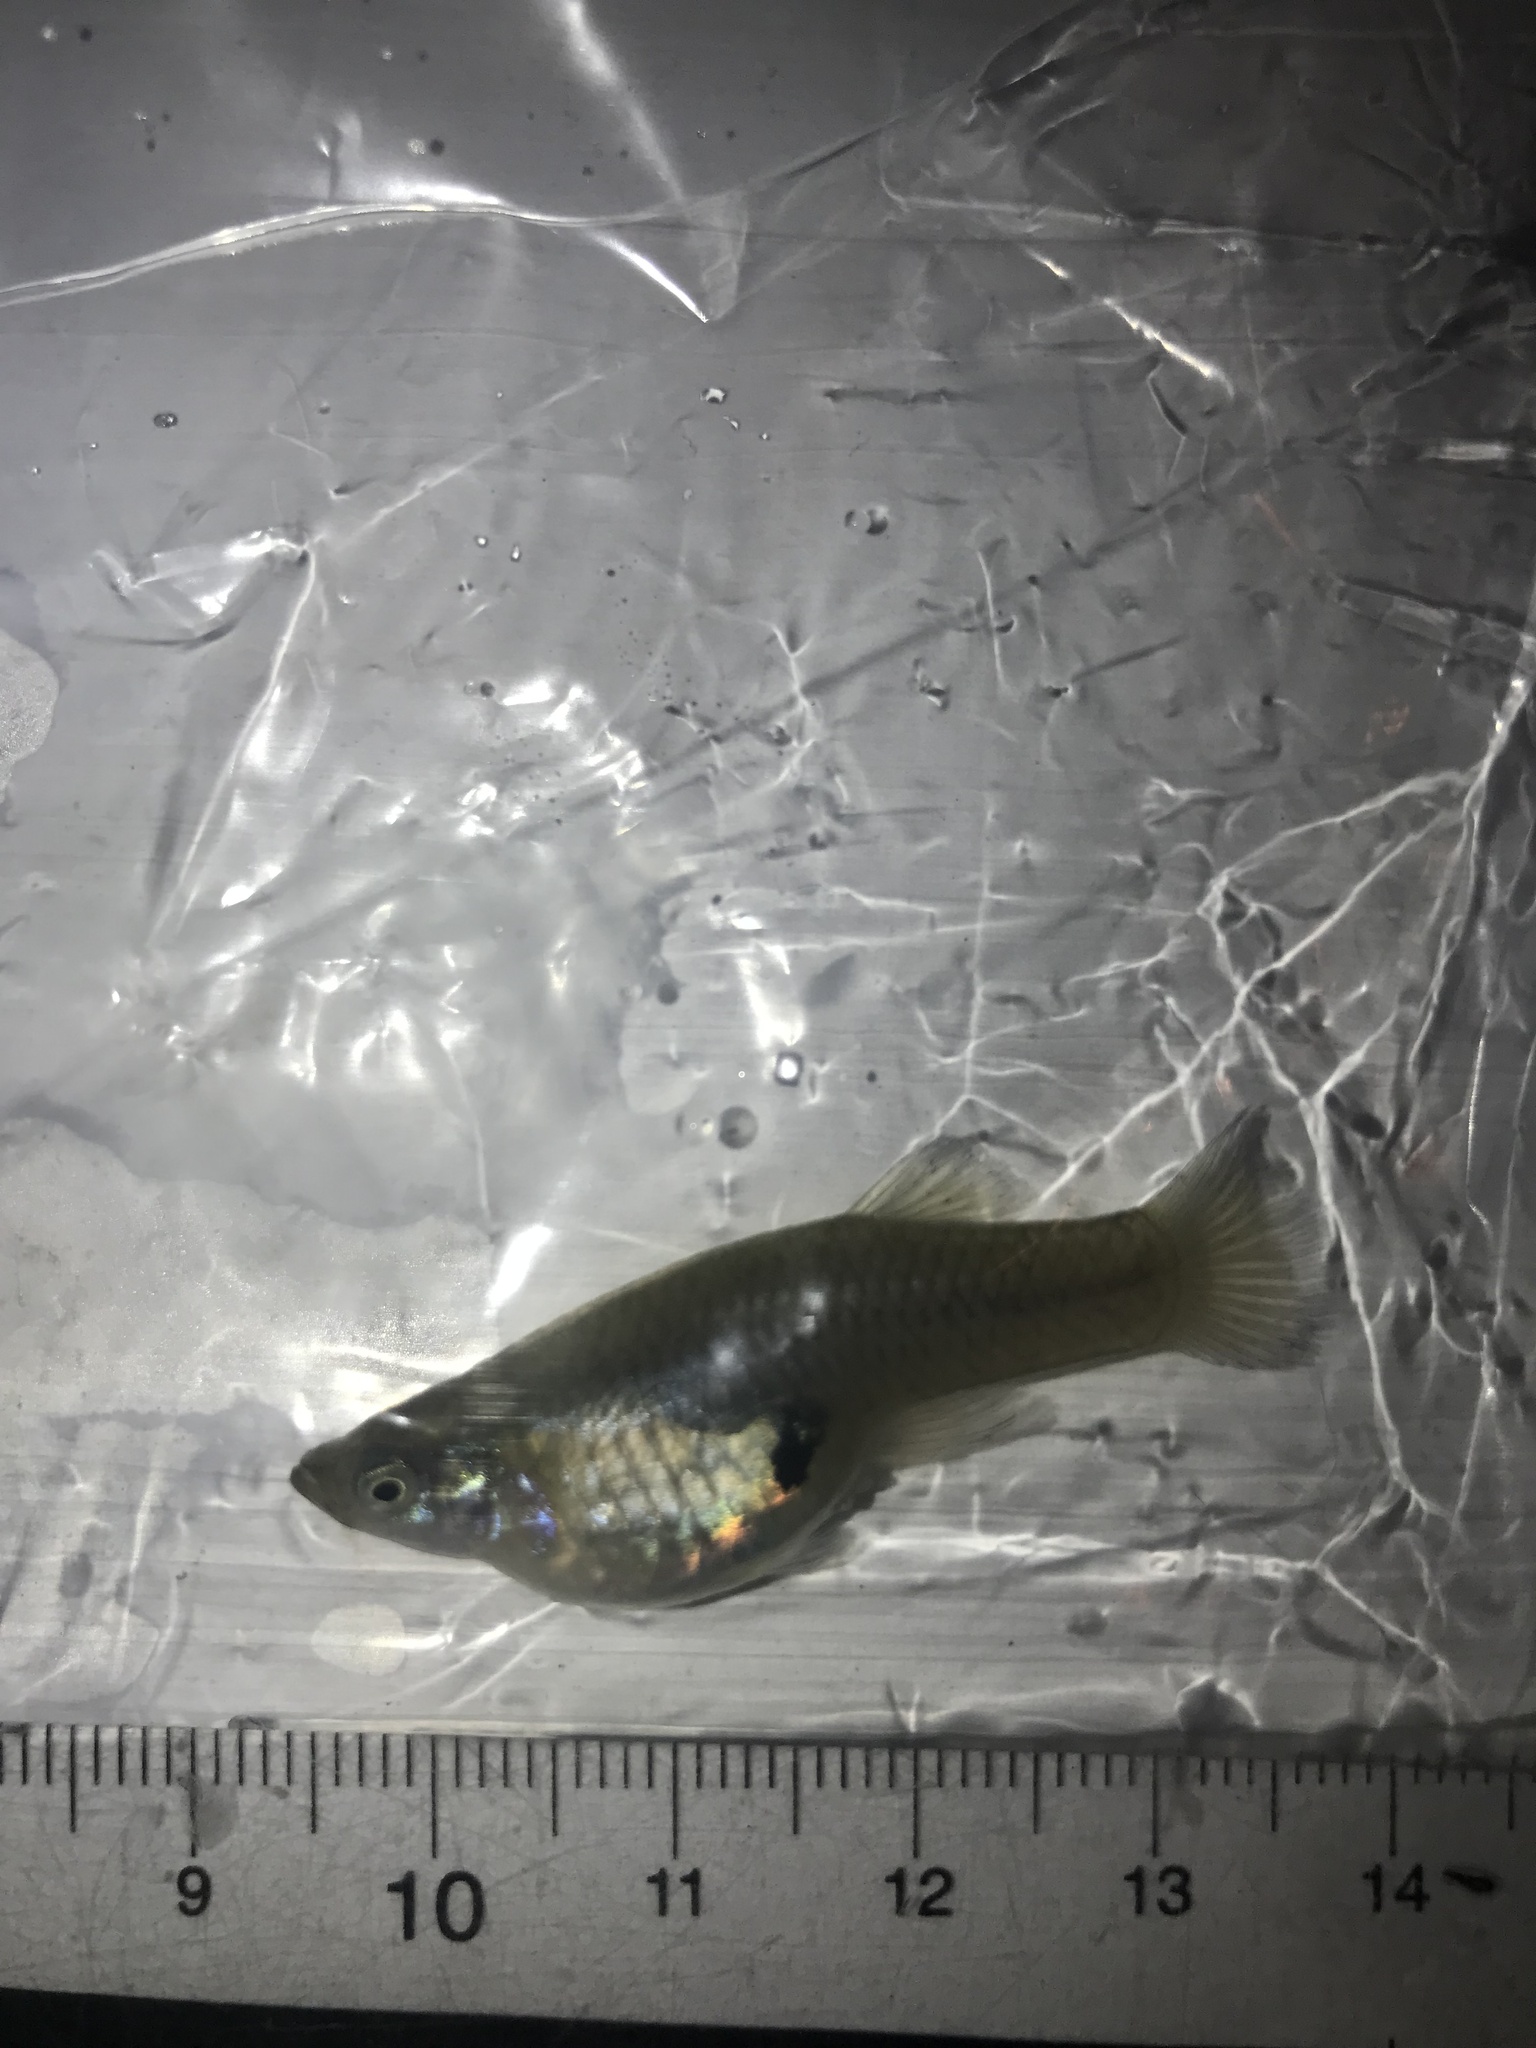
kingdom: Animalia
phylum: Chordata
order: Cyprinodontiformes
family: Poeciliidae
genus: Gambusia
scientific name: Gambusia affinis
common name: Mosquitofish
